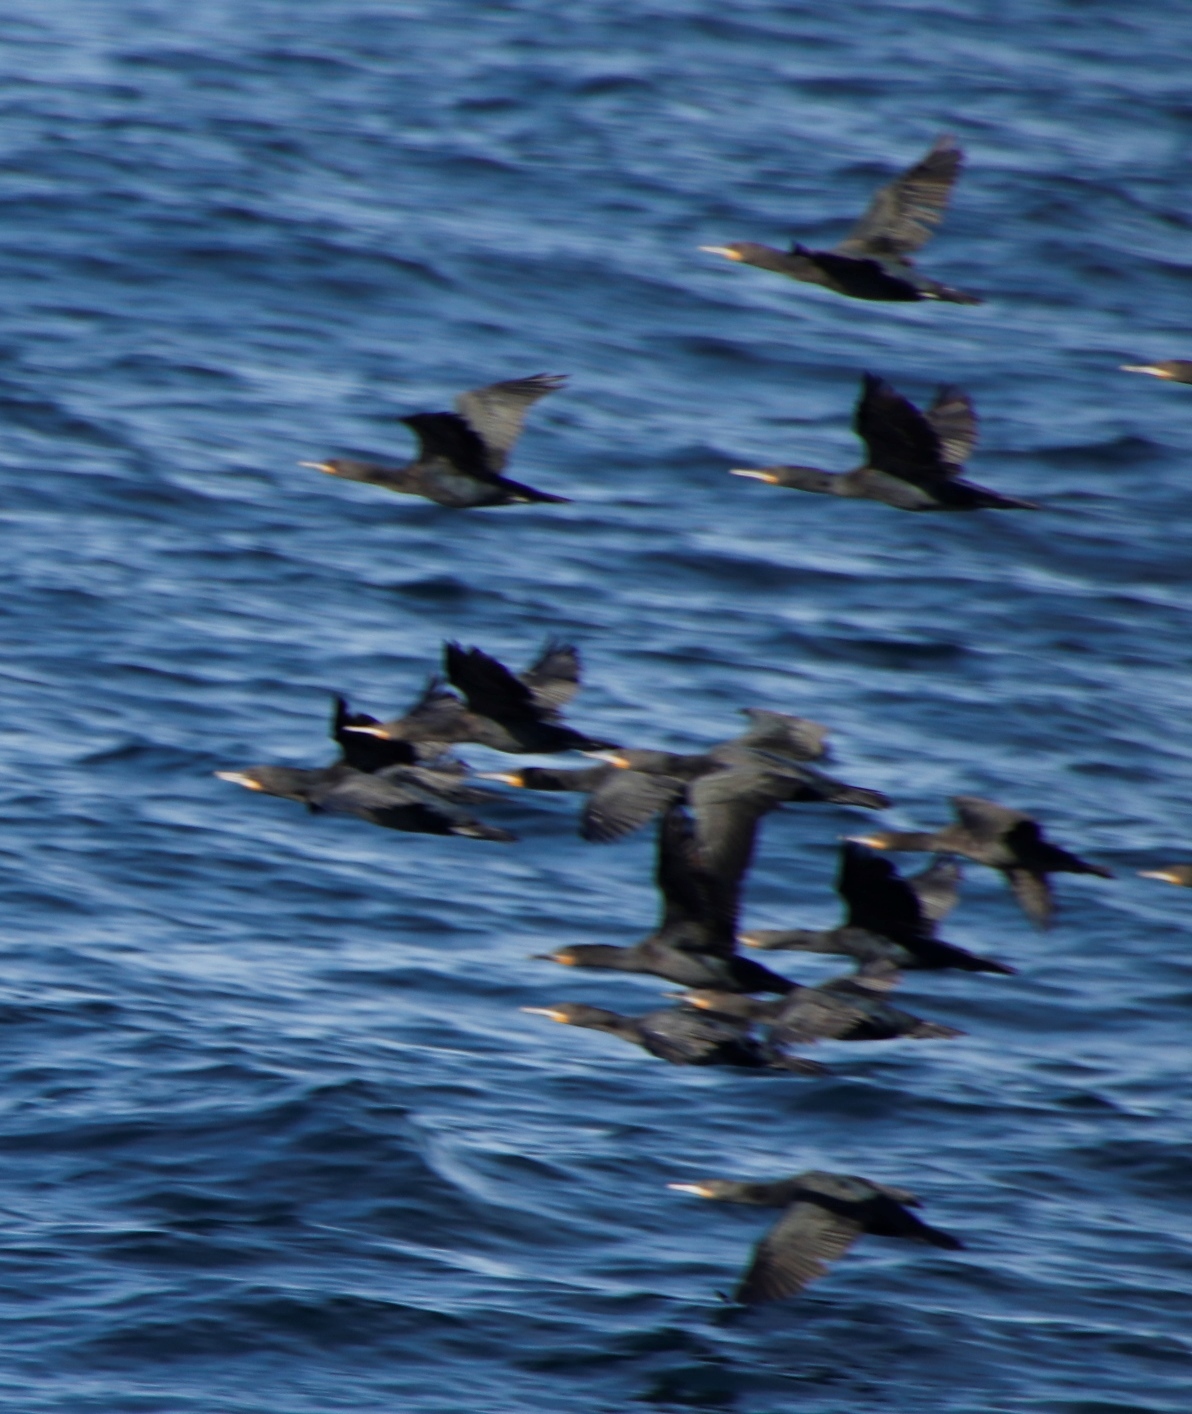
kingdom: Animalia
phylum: Chordata
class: Aves
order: Suliformes
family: Phalacrocoracidae
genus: Phalacrocorax
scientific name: Phalacrocorax capensis
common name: Cape cormorant
